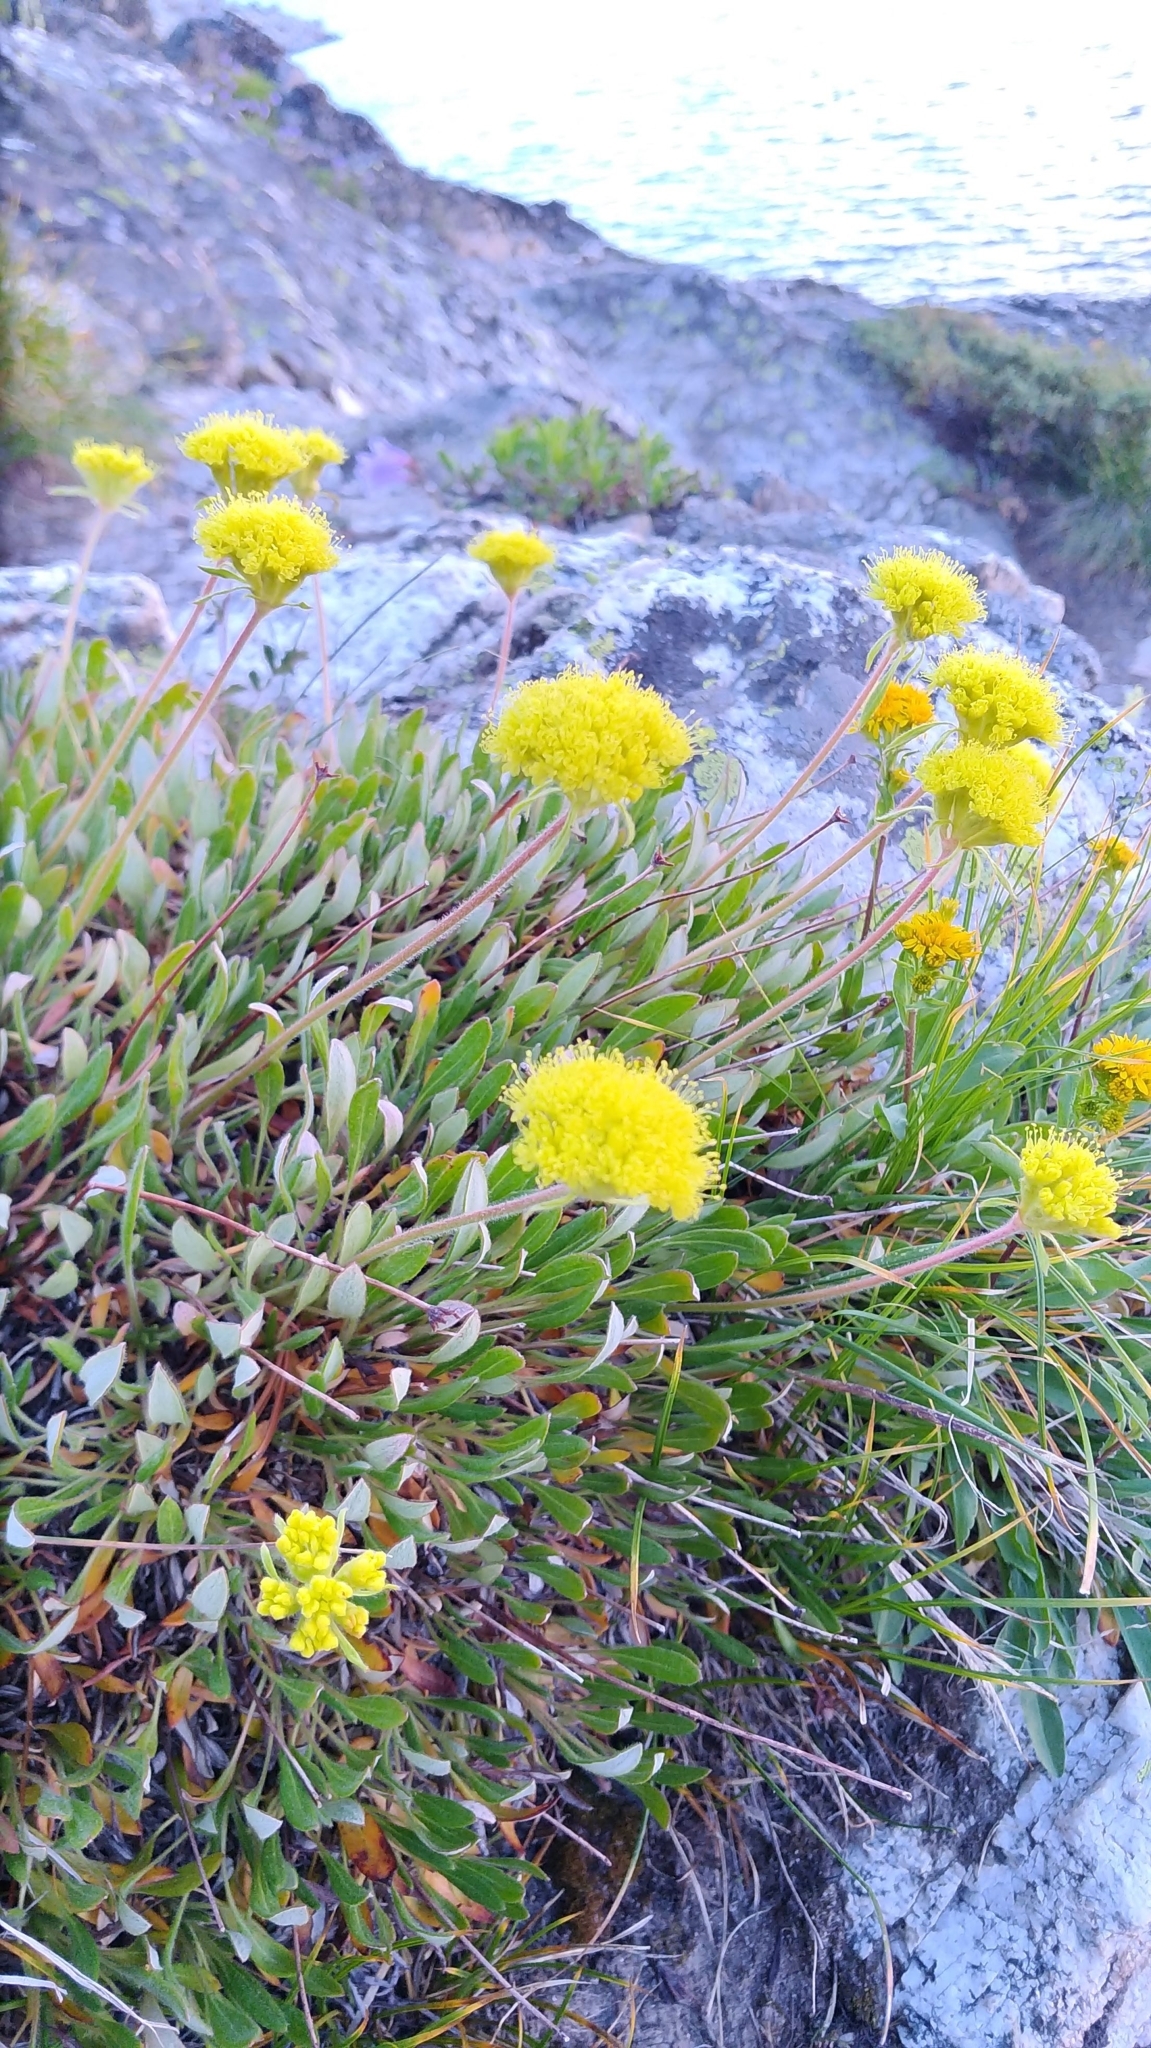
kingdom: Plantae
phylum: Tracheophyta
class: Magnoliopsida
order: Caryophyllales
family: Polygonaceae
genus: Eriogonum
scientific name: Eriogonum flavum
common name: Alpine golden wild buckwheat
